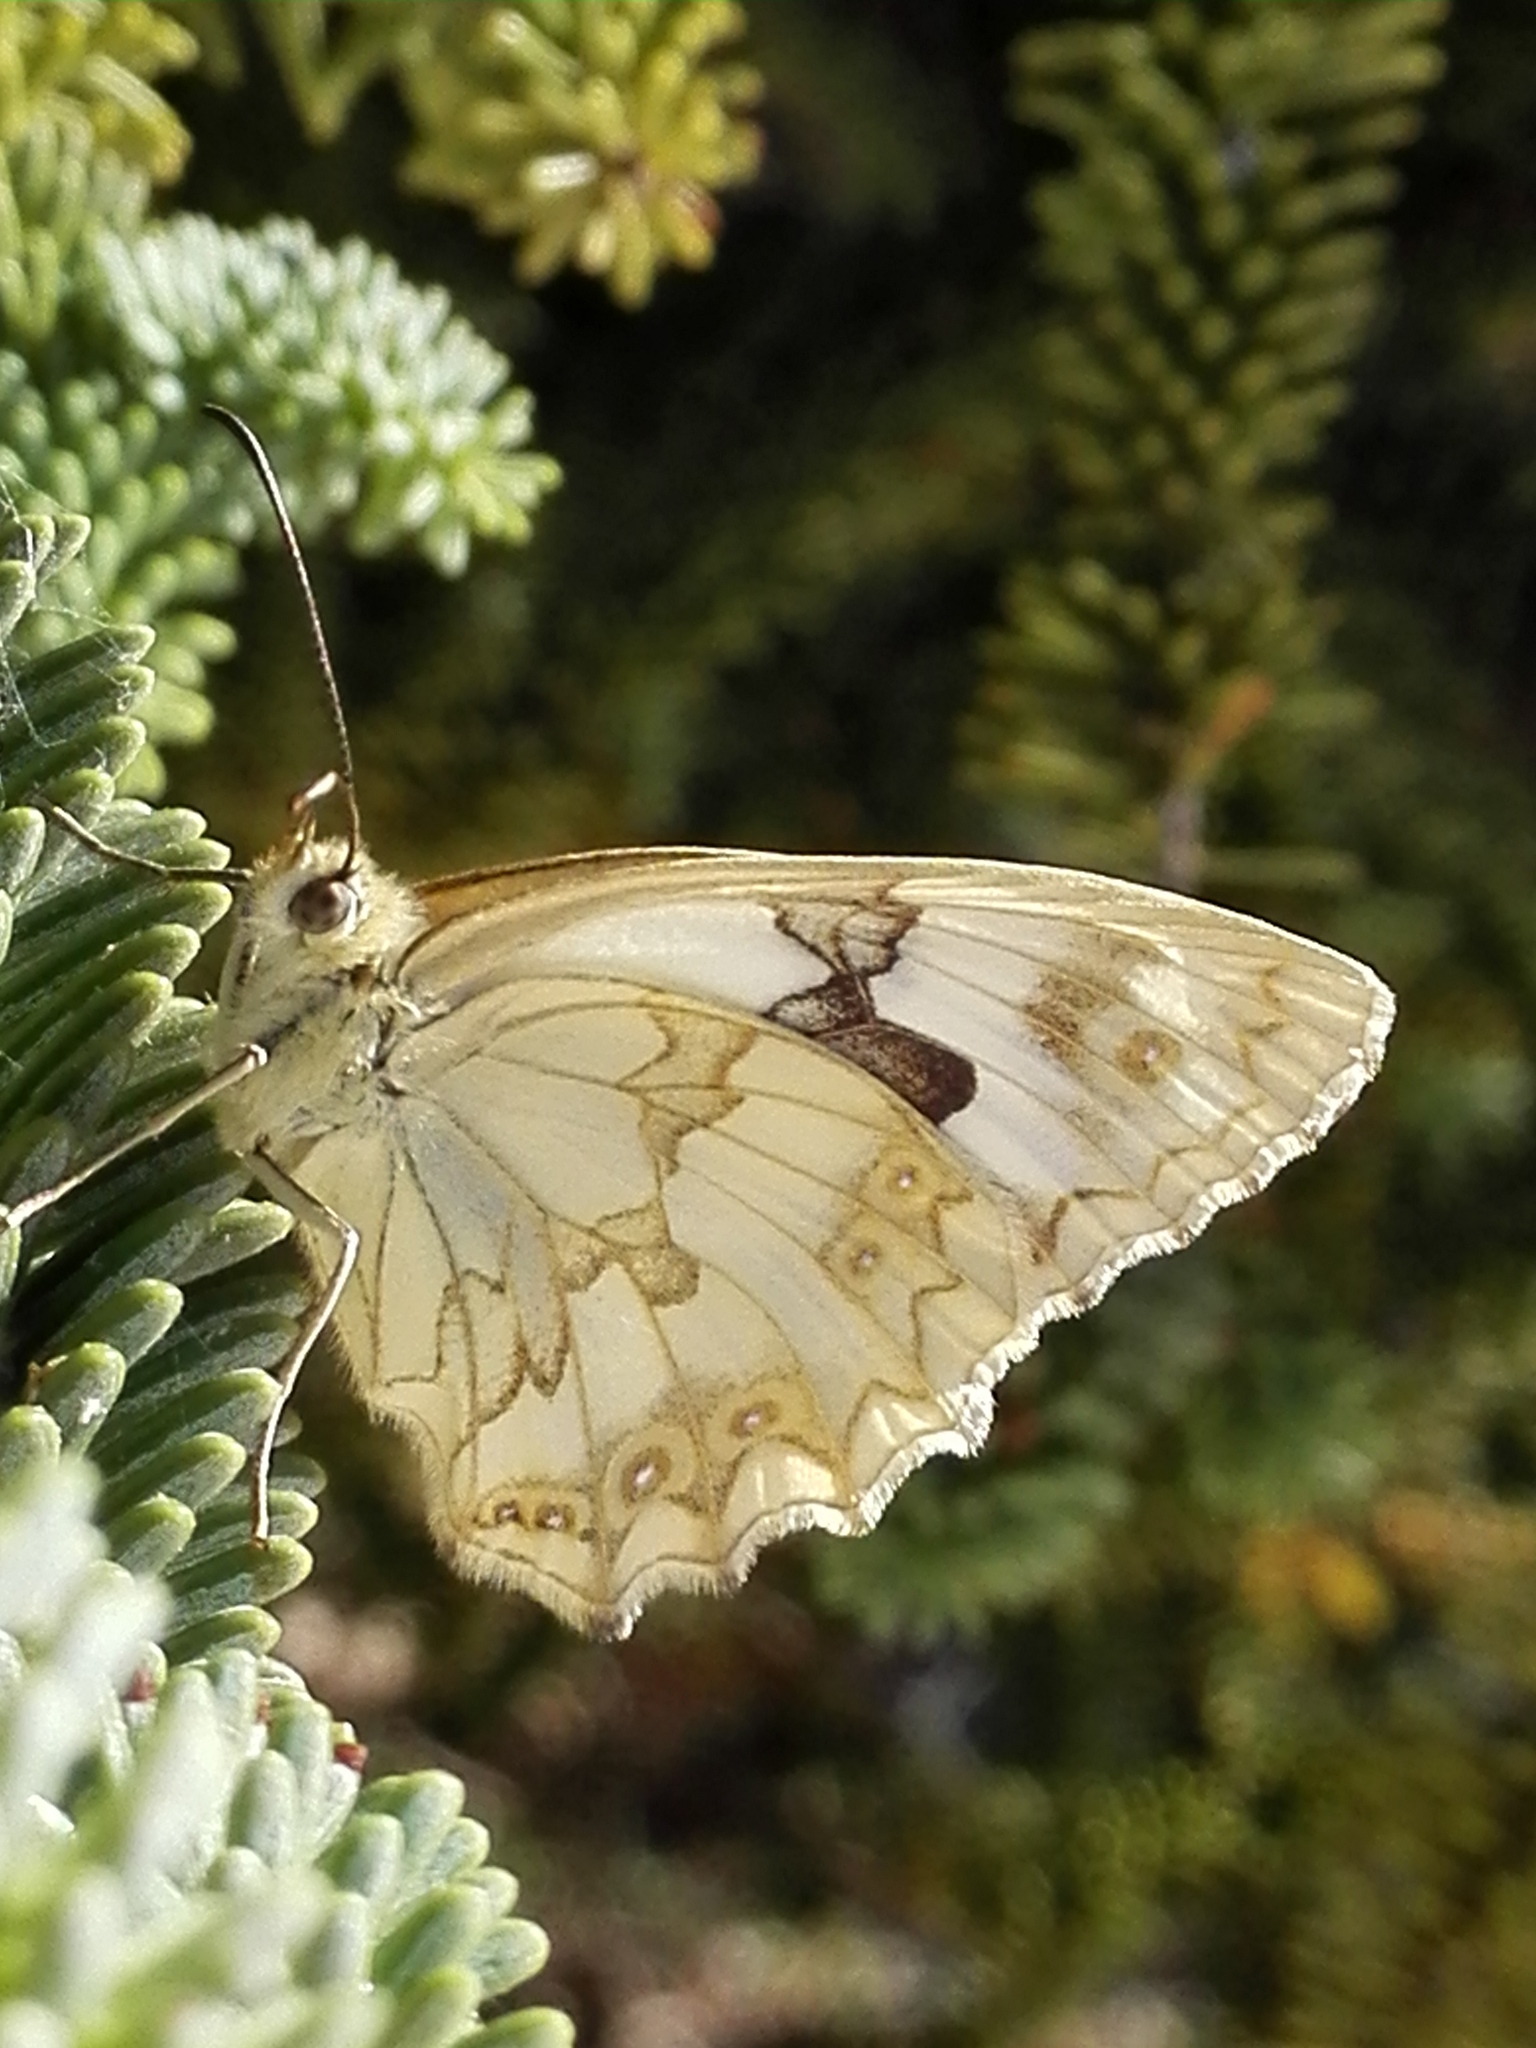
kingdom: Animalia
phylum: Arthropoda
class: Insecta
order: Lepidoptera
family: Nymphalidae
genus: Melanargia
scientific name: Melanargia lachesis
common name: Iberian marbled white
